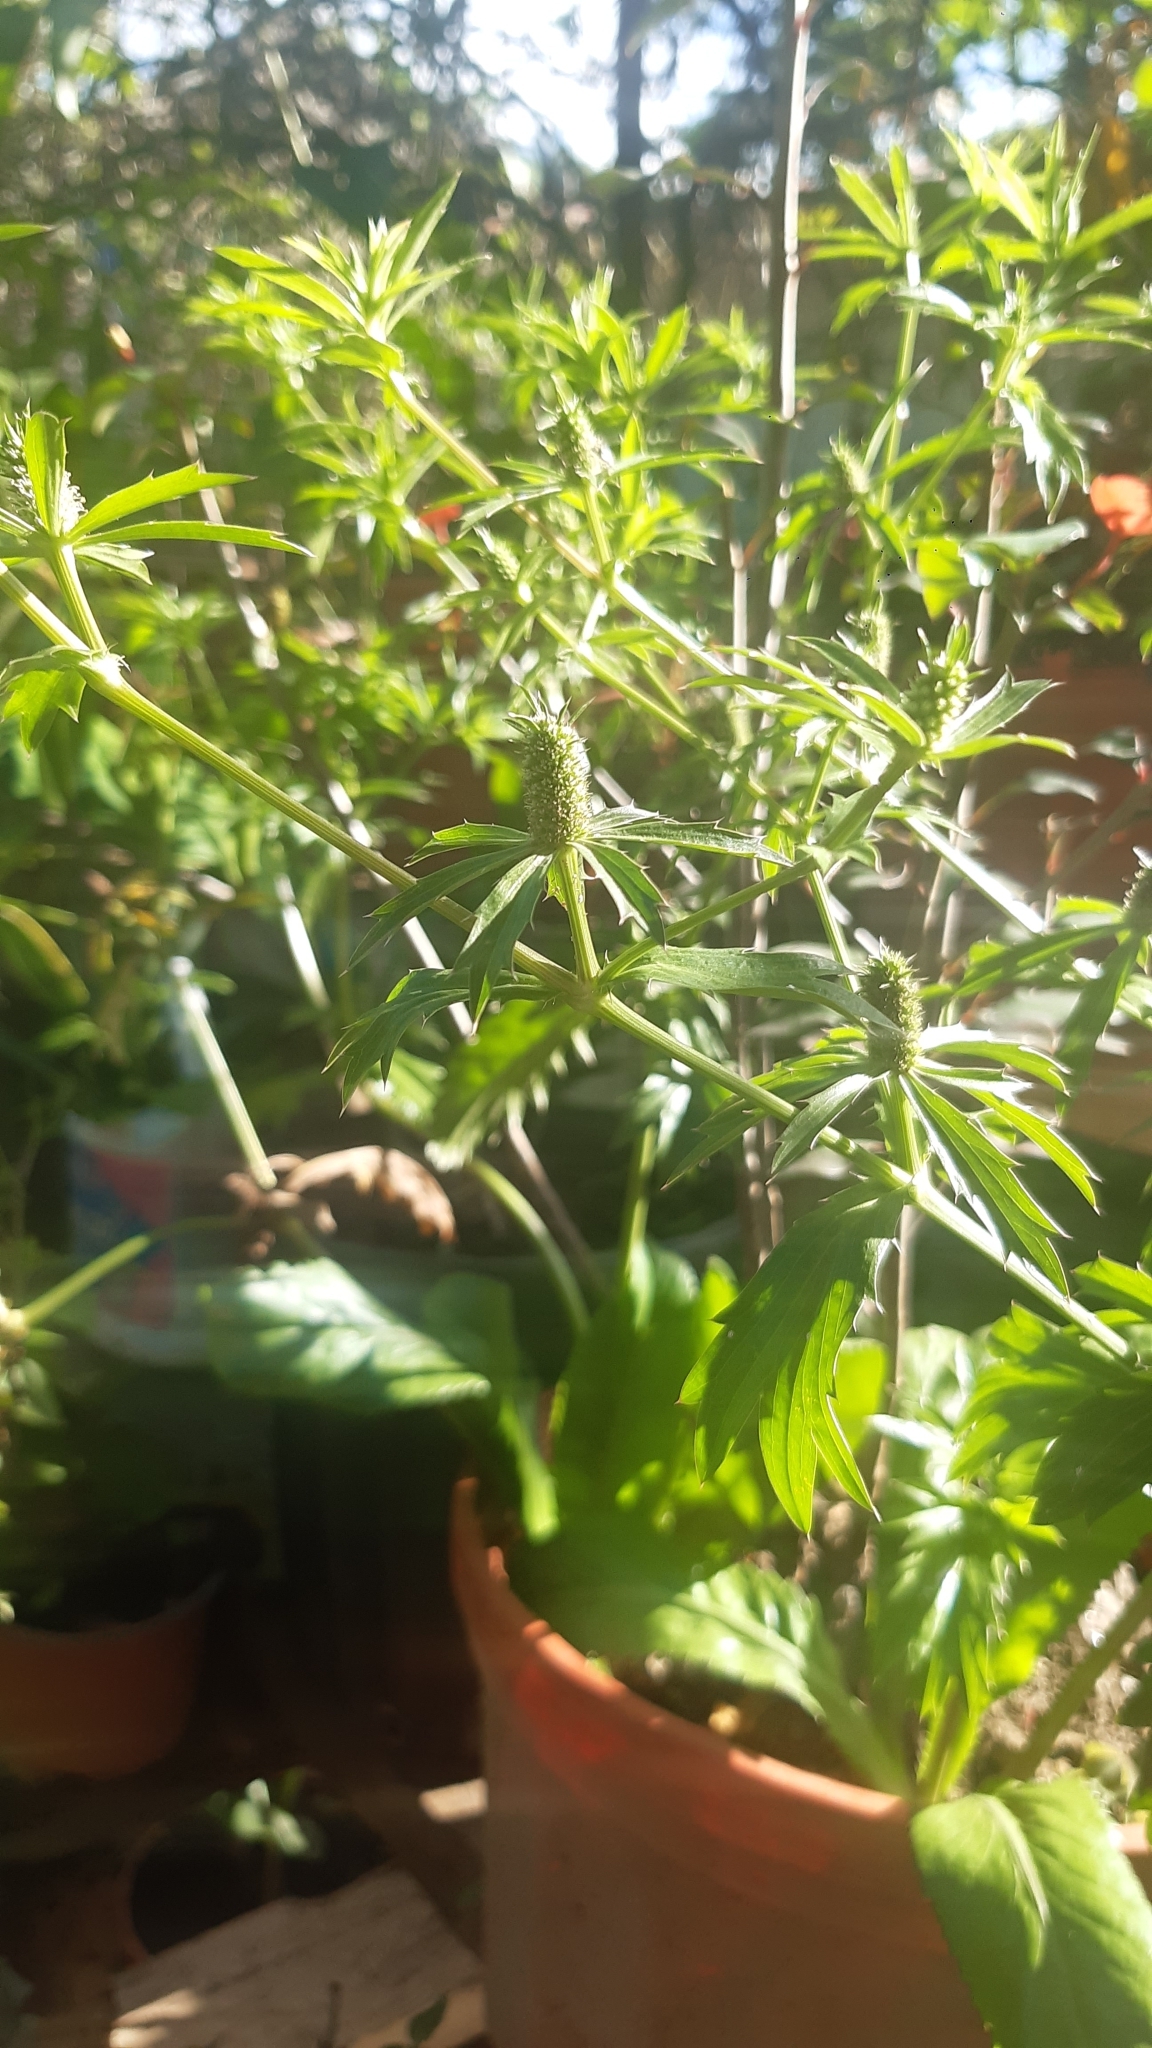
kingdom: Plantae
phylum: Tracheophyta
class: Magnoliopsida
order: Apiales
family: Apiaceae
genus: Eryngium
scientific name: Eryngium foetidum
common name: Fitweed
